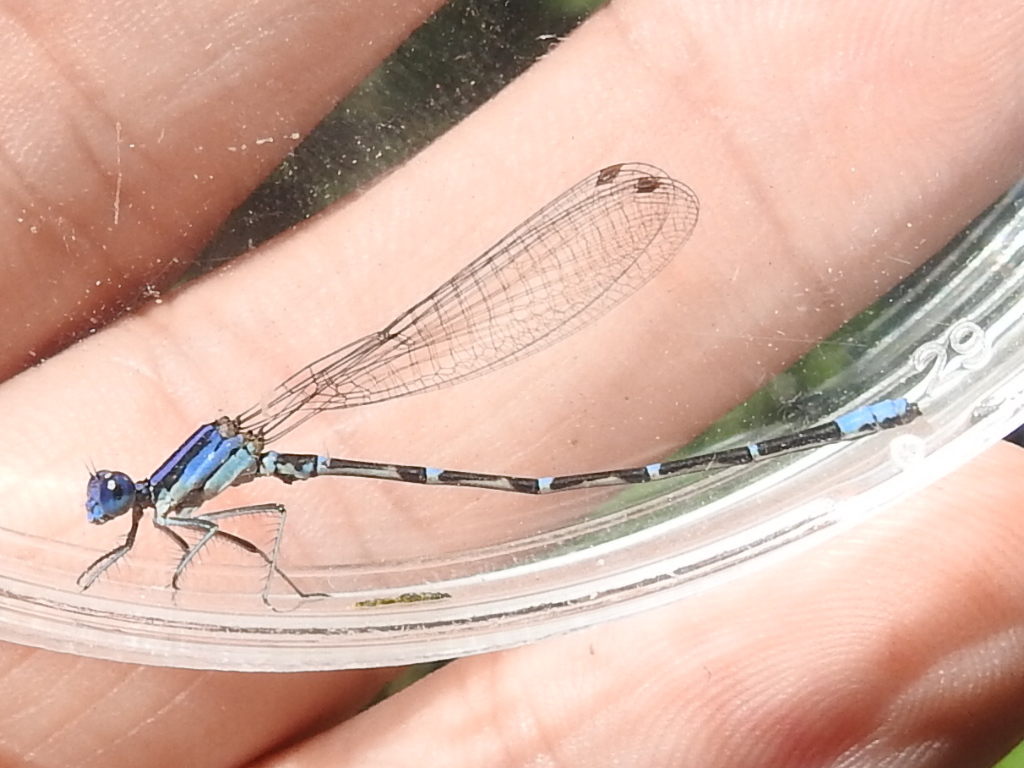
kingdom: Animalia
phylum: Arthropoda
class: Insecta
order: Odonata
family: Coenagrionidae
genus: Argia
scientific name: Argia sedula
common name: Blue-ringed dancer
